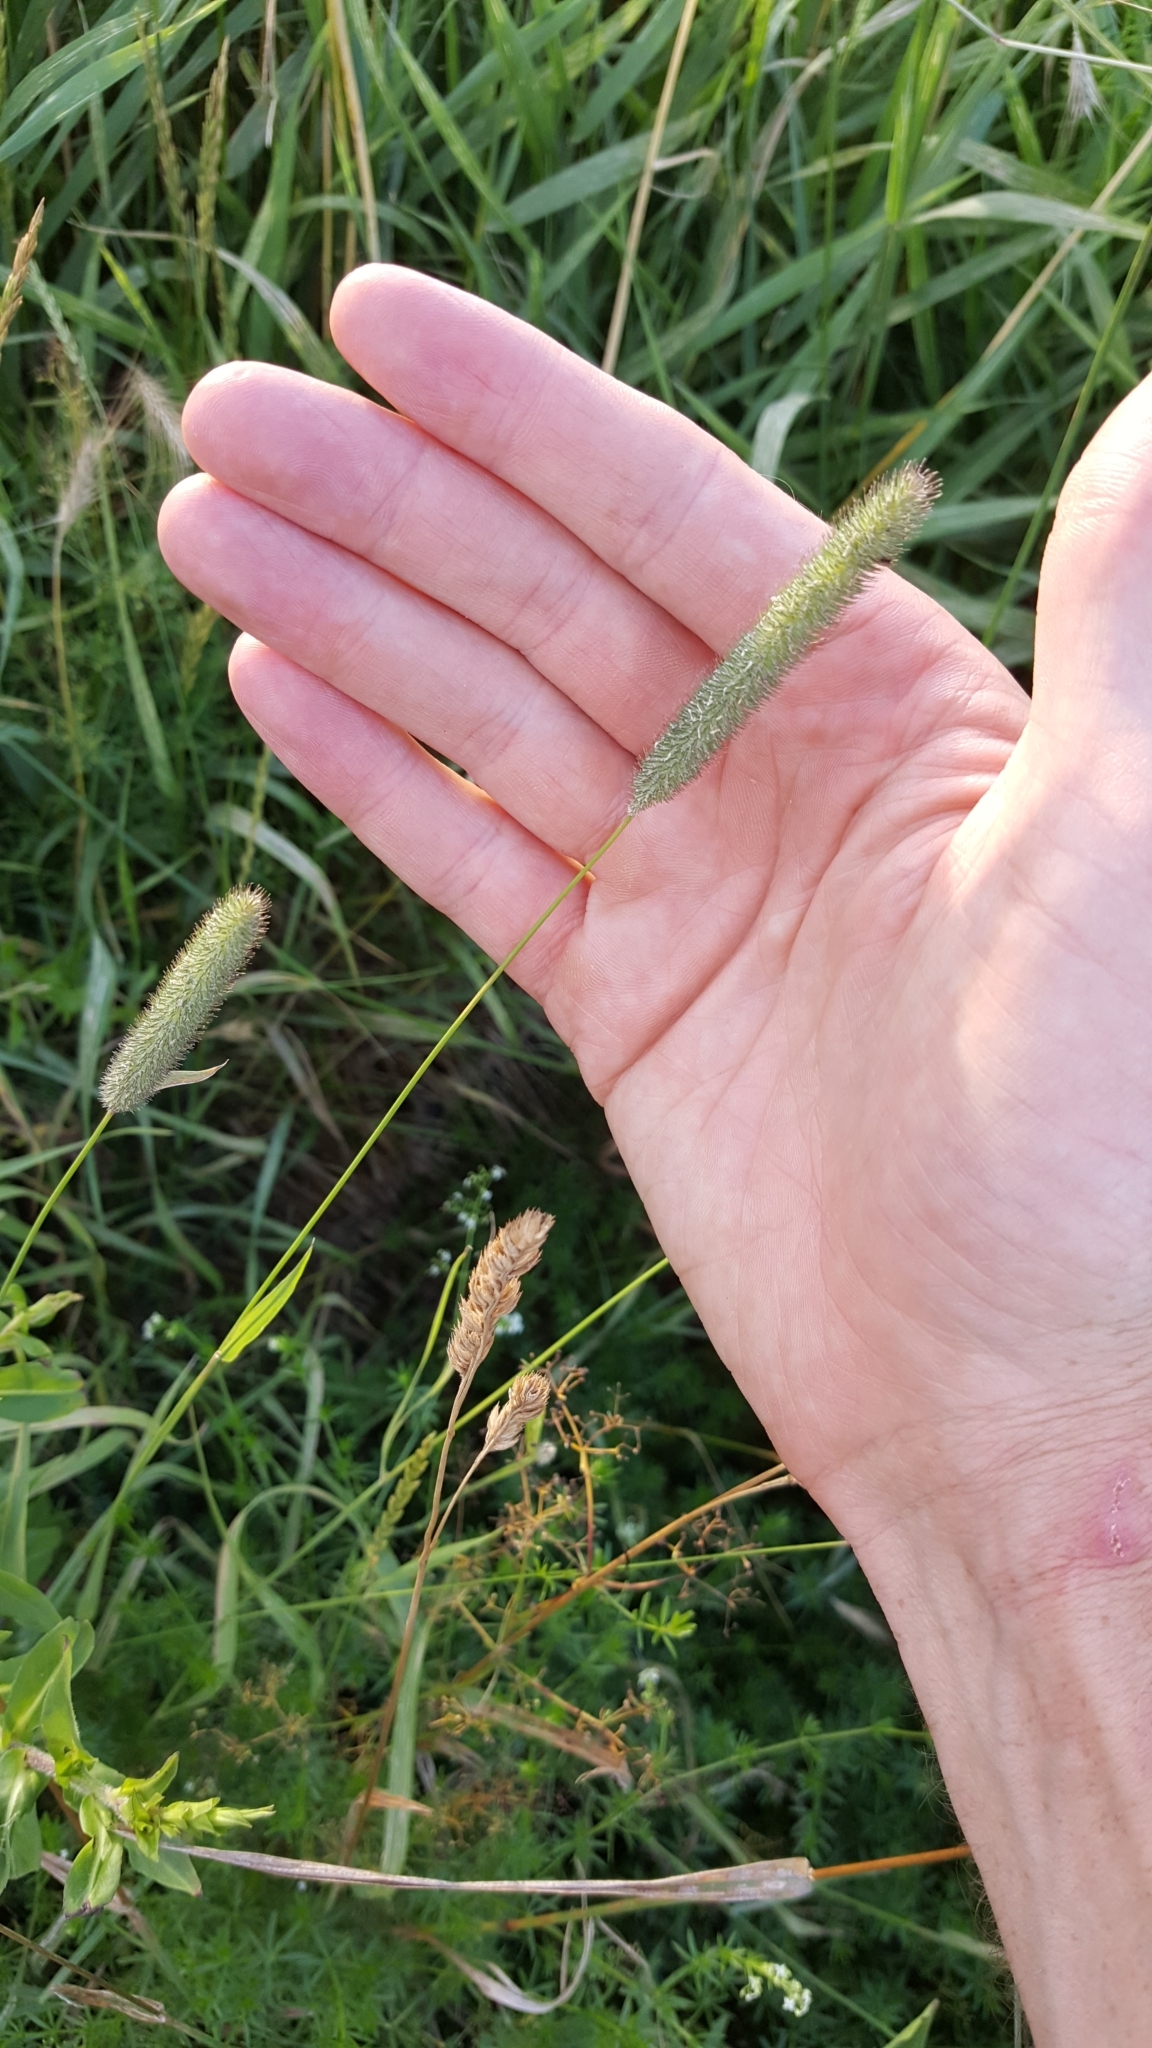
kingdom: Plantae
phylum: Tracheophyta
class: Liliopsida
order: Poales
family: Poaceae
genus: Phleum
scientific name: Phleum pratense
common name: Timothy grass
